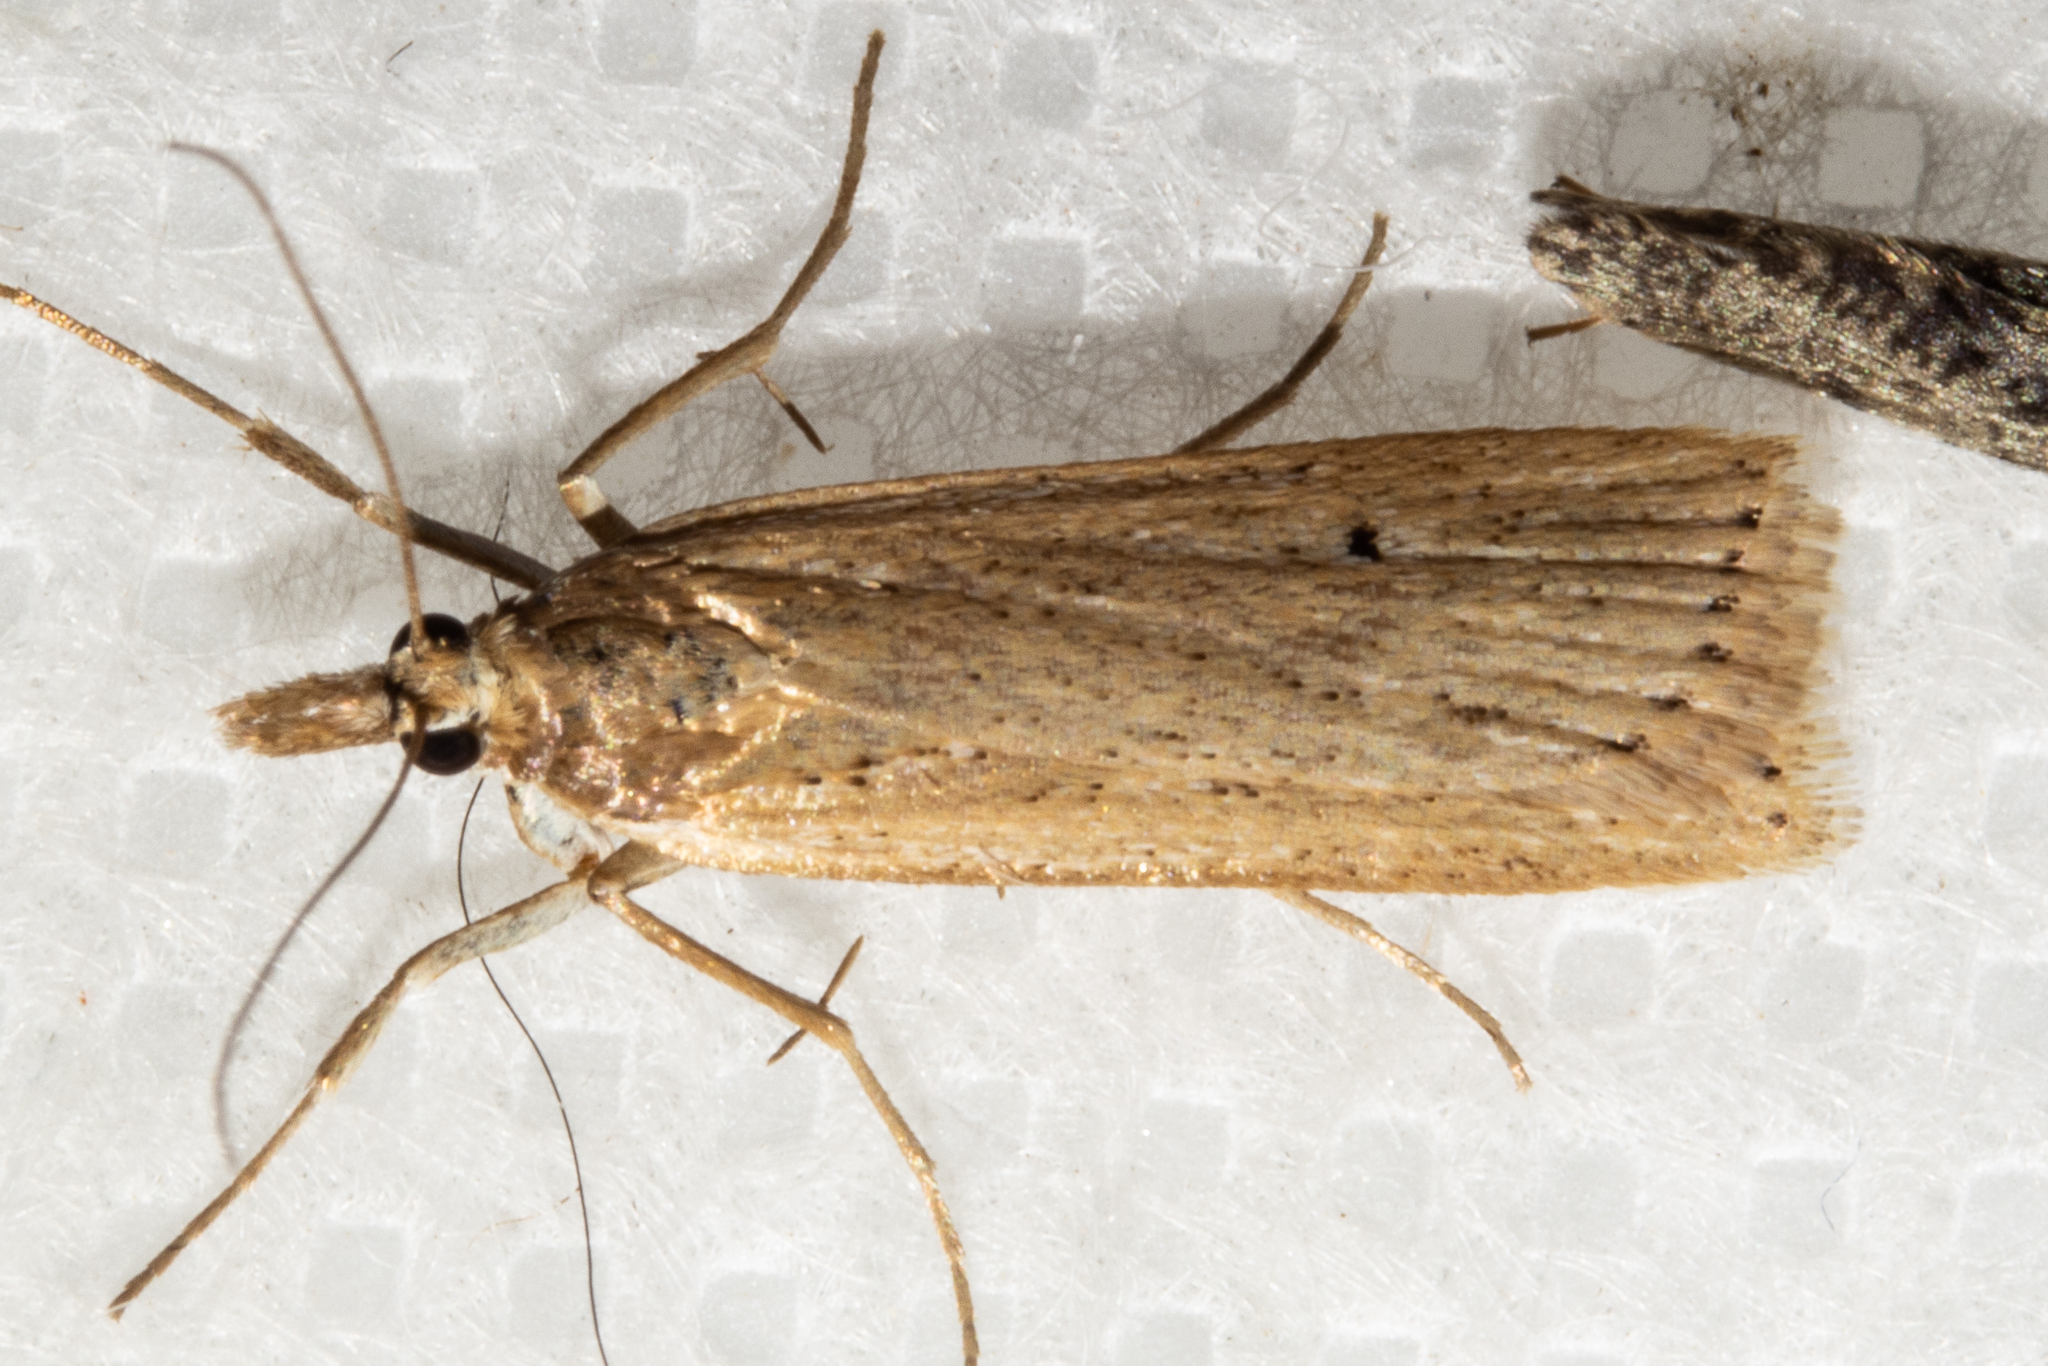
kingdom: Animalia
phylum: Arthropoda
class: Insecta
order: Lepidoptera
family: Crambidae
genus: Eudonia
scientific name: Eudonia sabulosella
